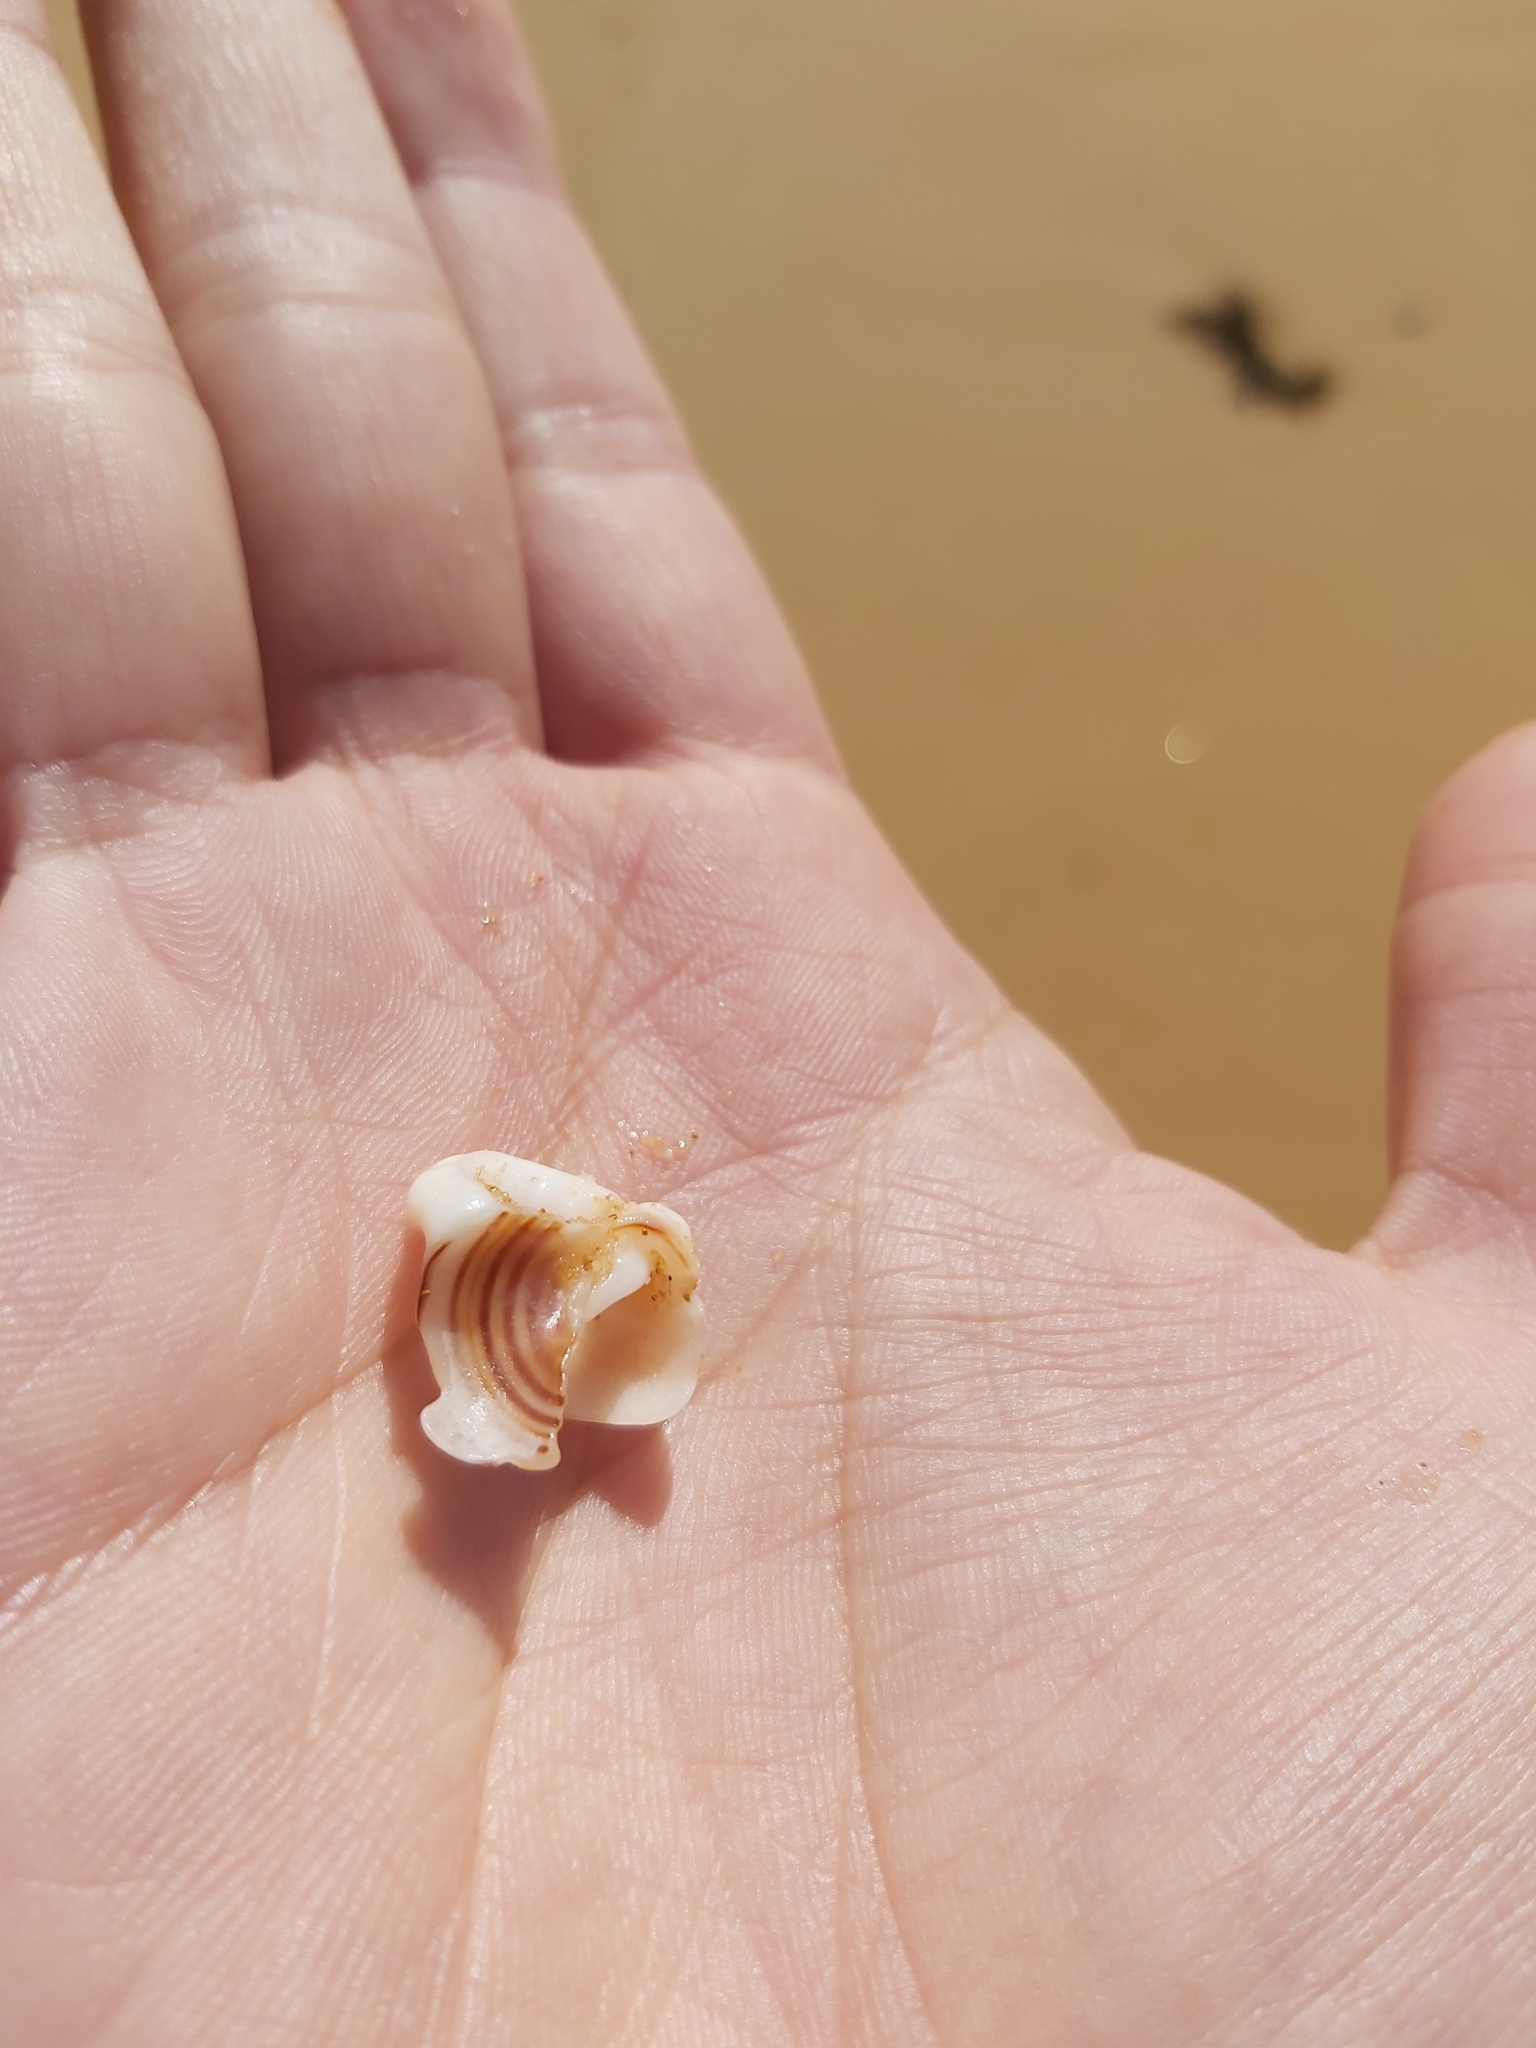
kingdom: Animalia
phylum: Mollusca
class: Gastropoda
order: Littorinimorpha
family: Cymatiidae
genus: Cabestana
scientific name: Cabestana spengleri
